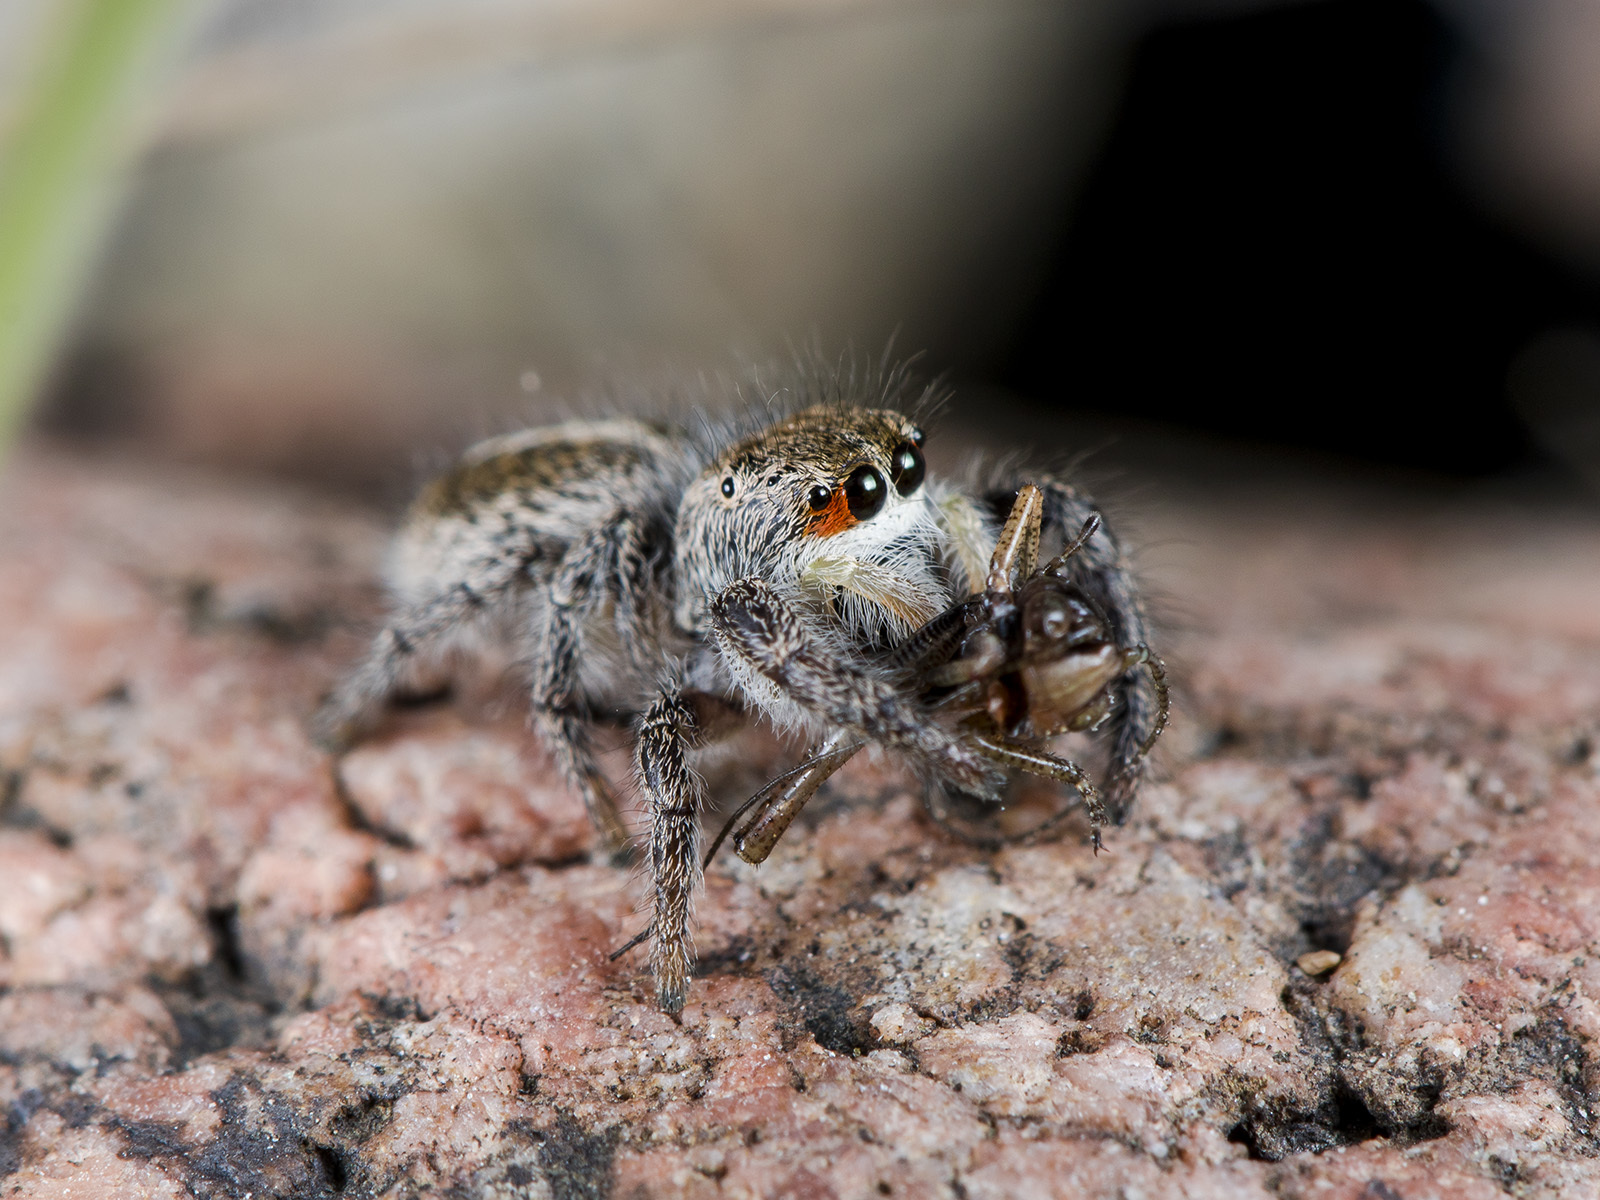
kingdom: Animalia
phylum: Arthropoda
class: Arachnida
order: Araneae
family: Salticidae
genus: Pellenes
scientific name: Pellenes seriatus
